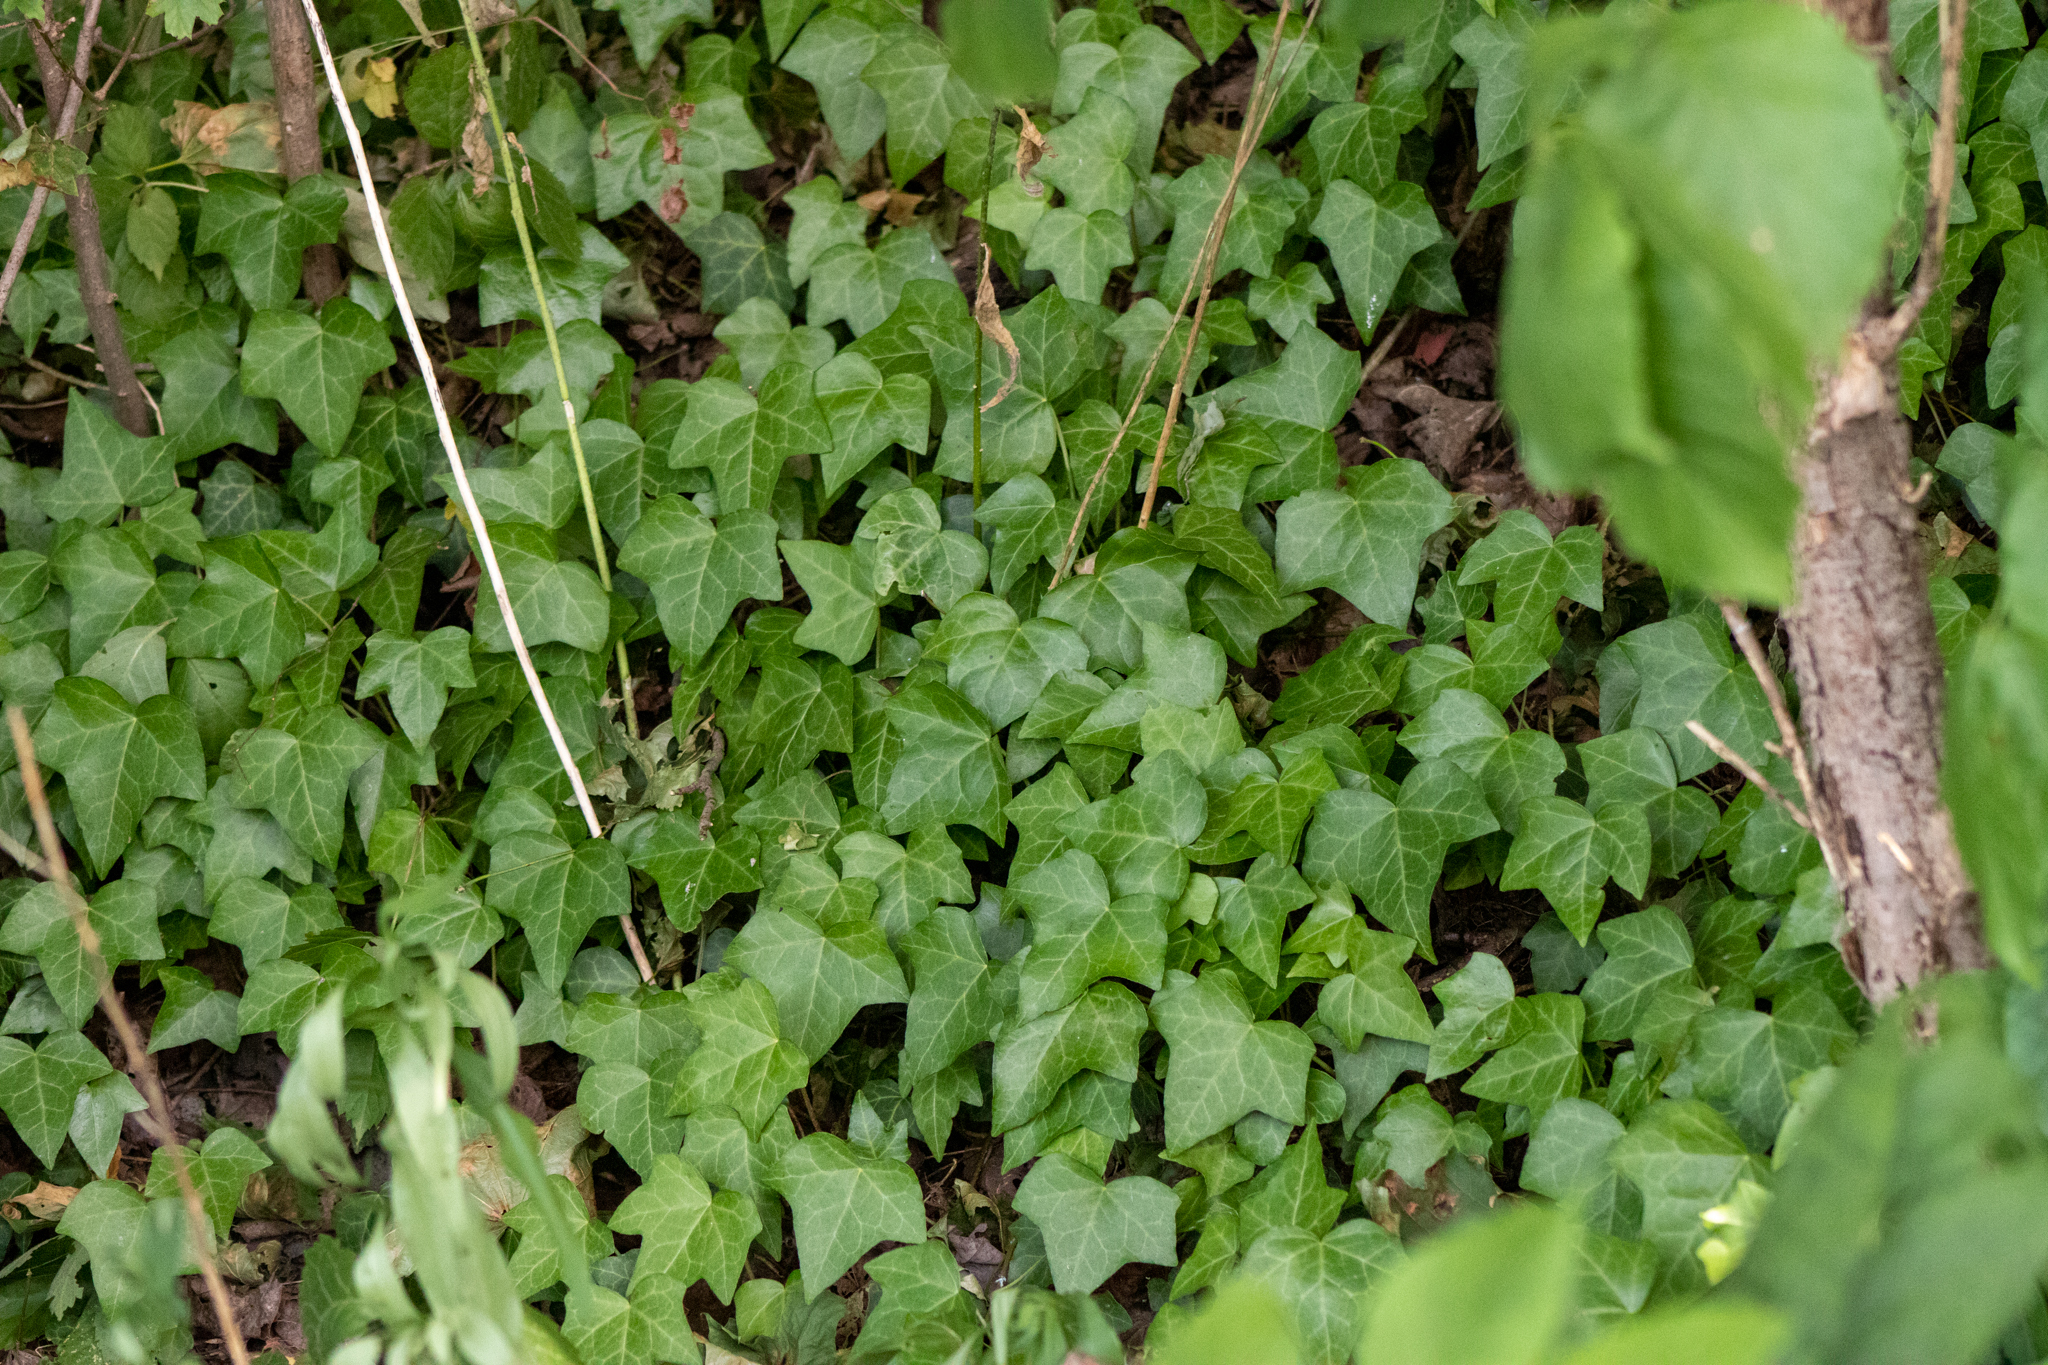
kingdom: Plantae
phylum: Tracheophyta
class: Magnoliopsida
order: Apiales
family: Araliaceae
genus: Hedera
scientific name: Hedera helix
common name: Ivy
